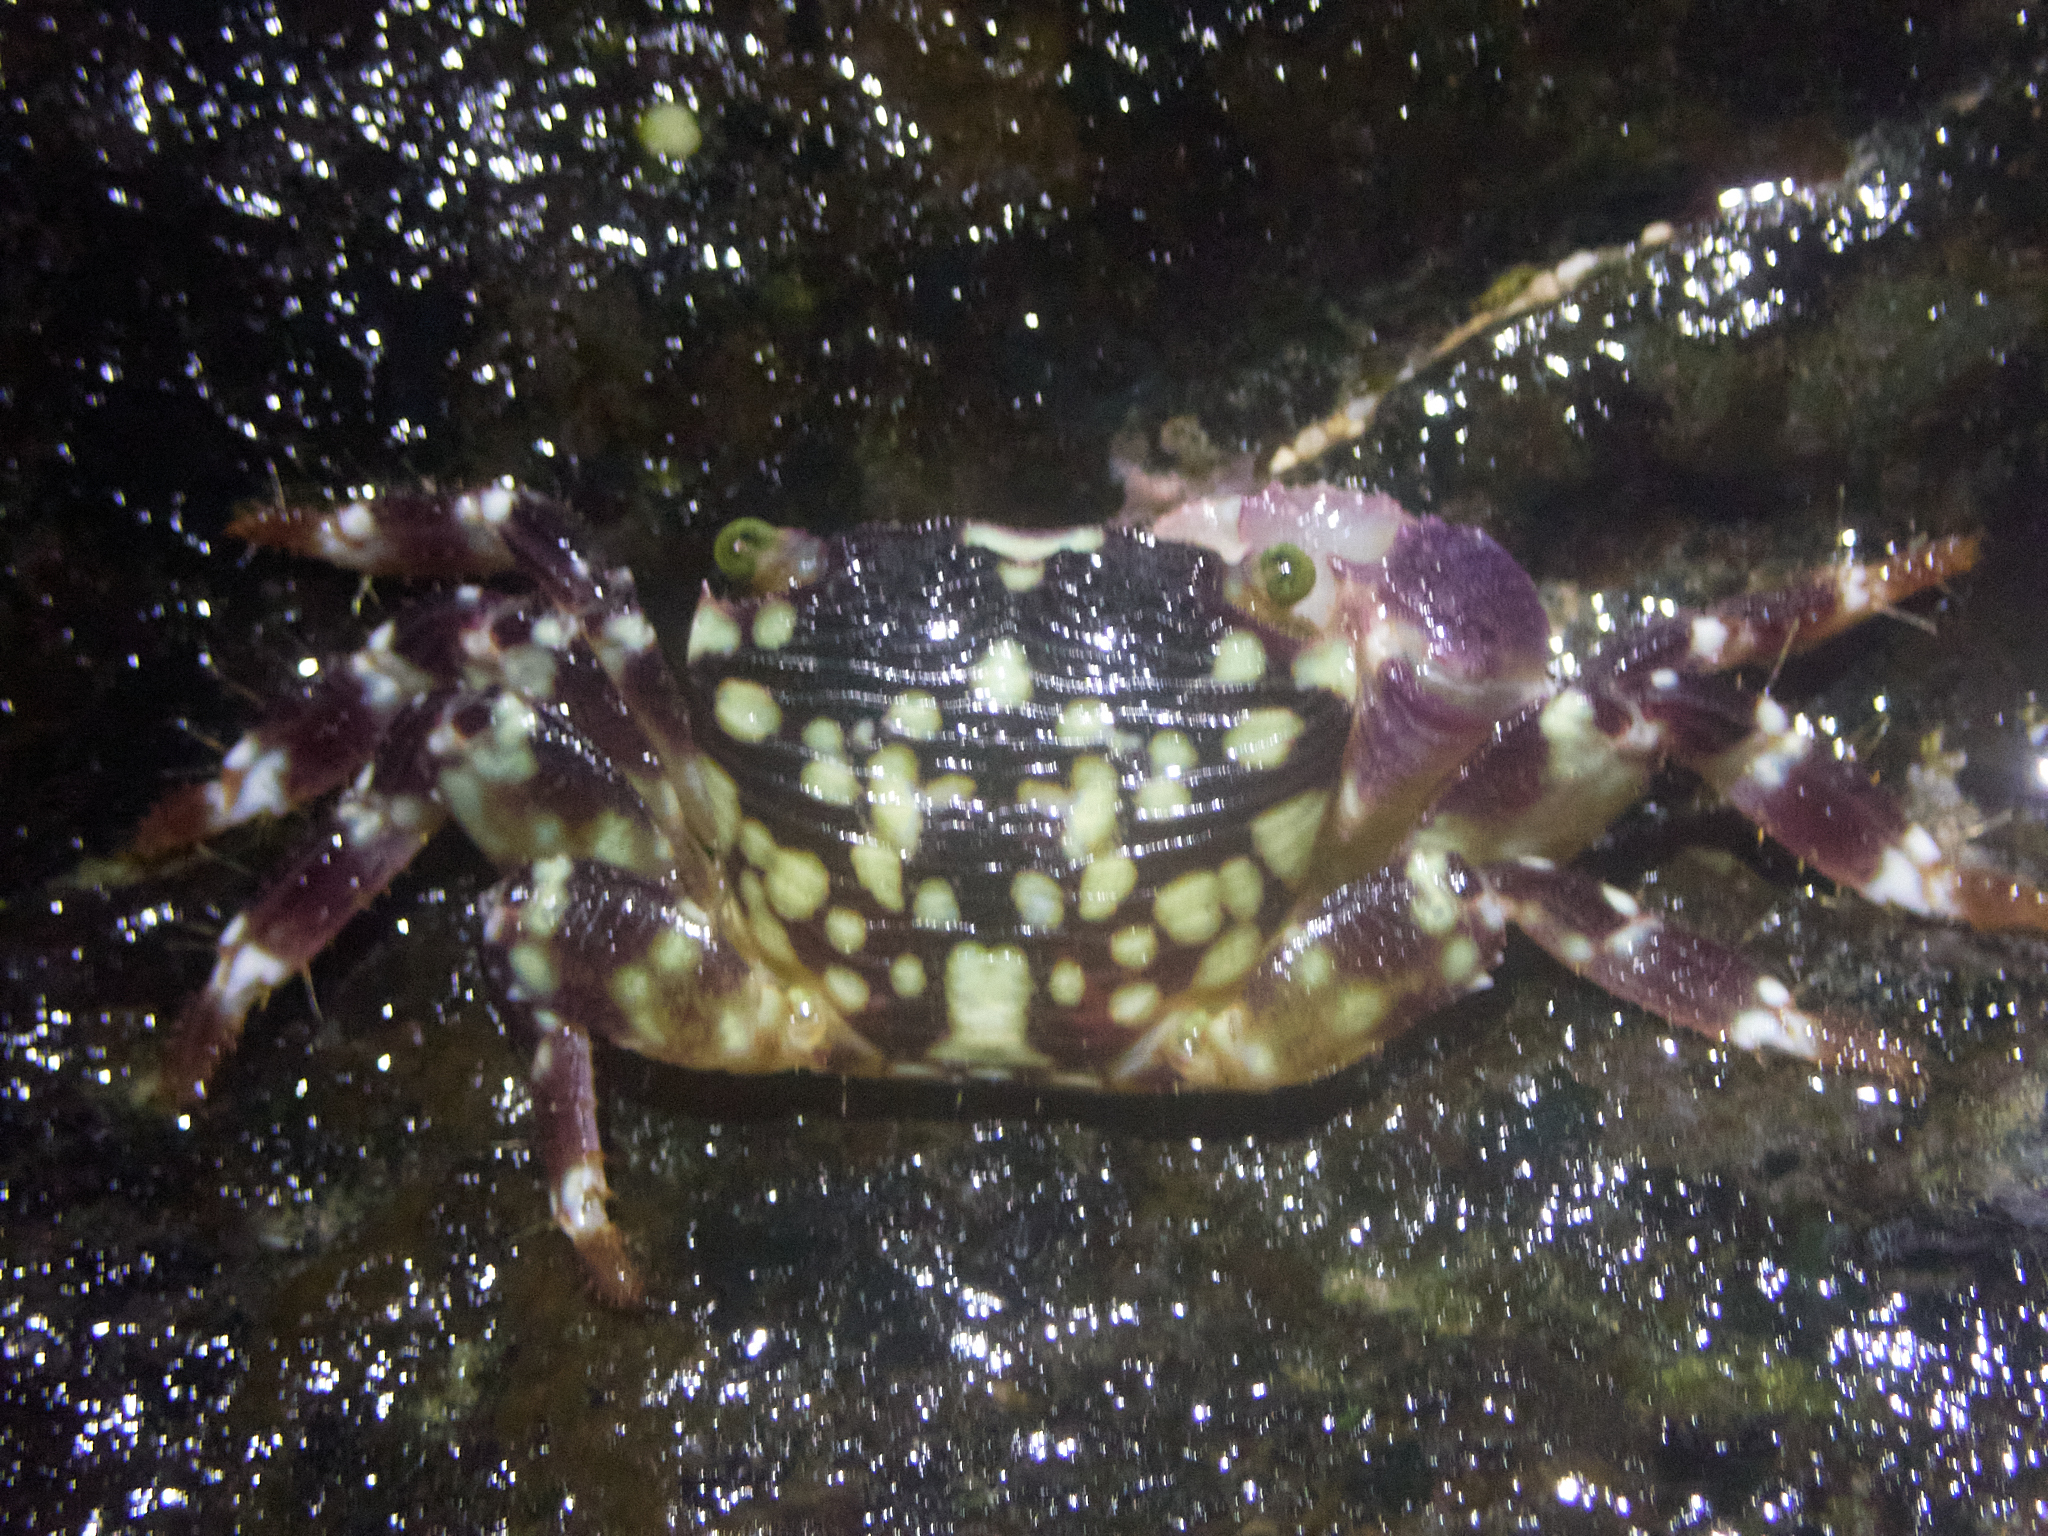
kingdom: Animalia
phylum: Arthropoda
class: Malacostraca
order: Decapoda
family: Grapsidae
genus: Pachygrapsus
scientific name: Pachygrapsus plicatus
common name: Pleated rock crab
